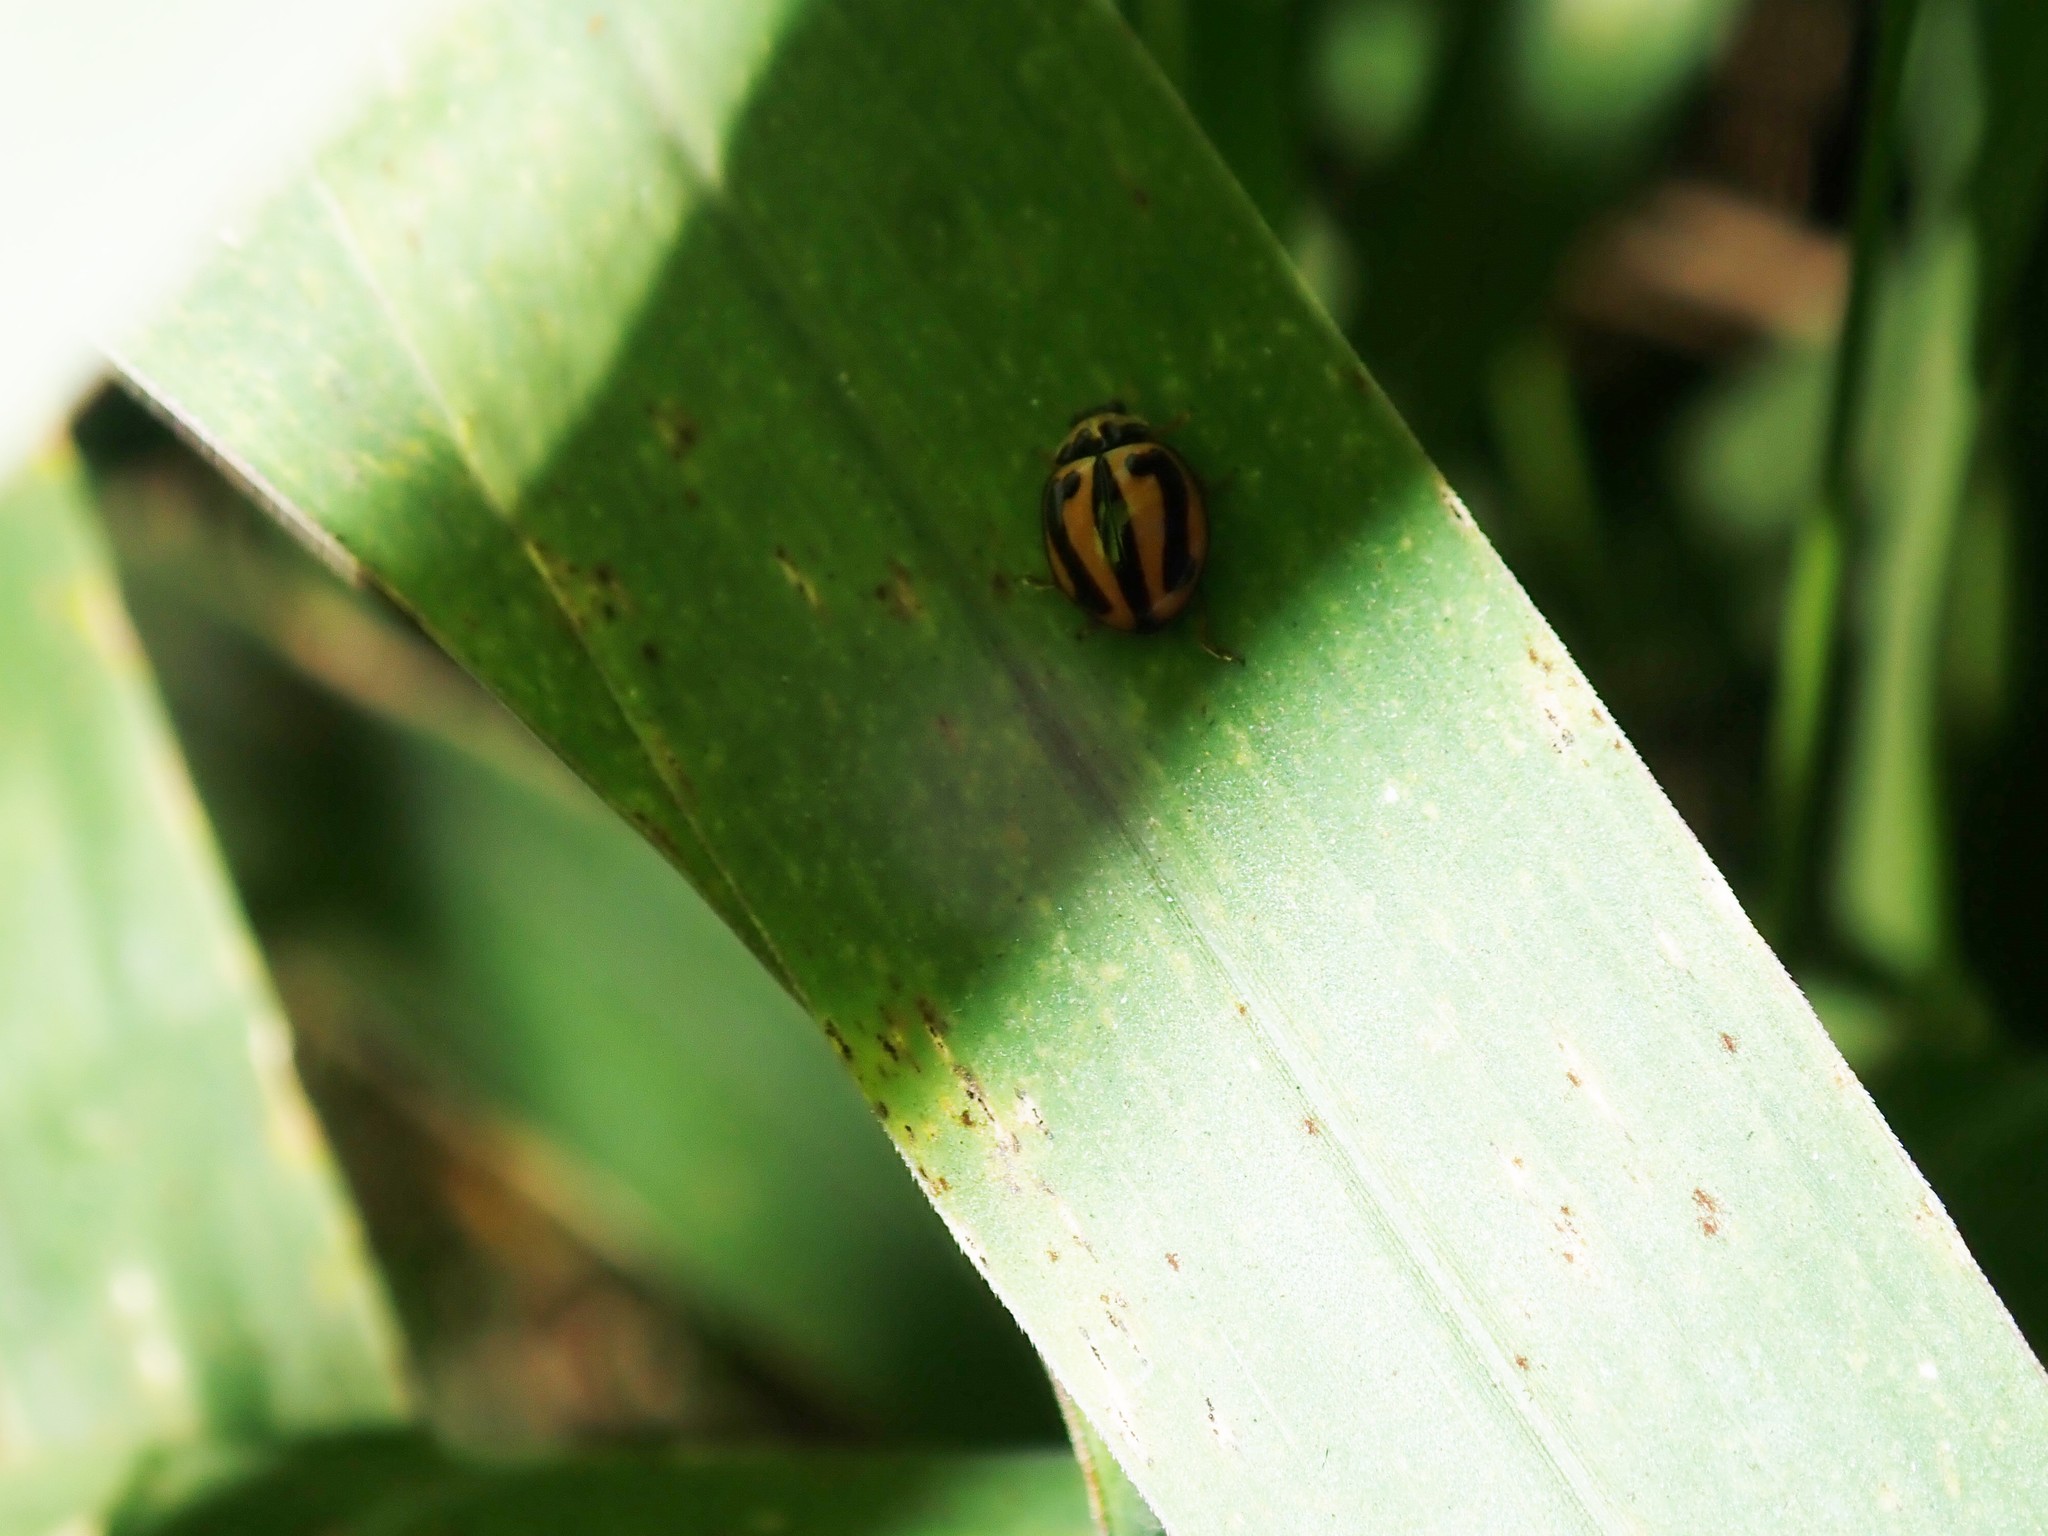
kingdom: Animalia
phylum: Arthropoda
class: Insecta
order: Coleoptera
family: Coccinellidae
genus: Micraspis
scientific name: Micraspis frenata
